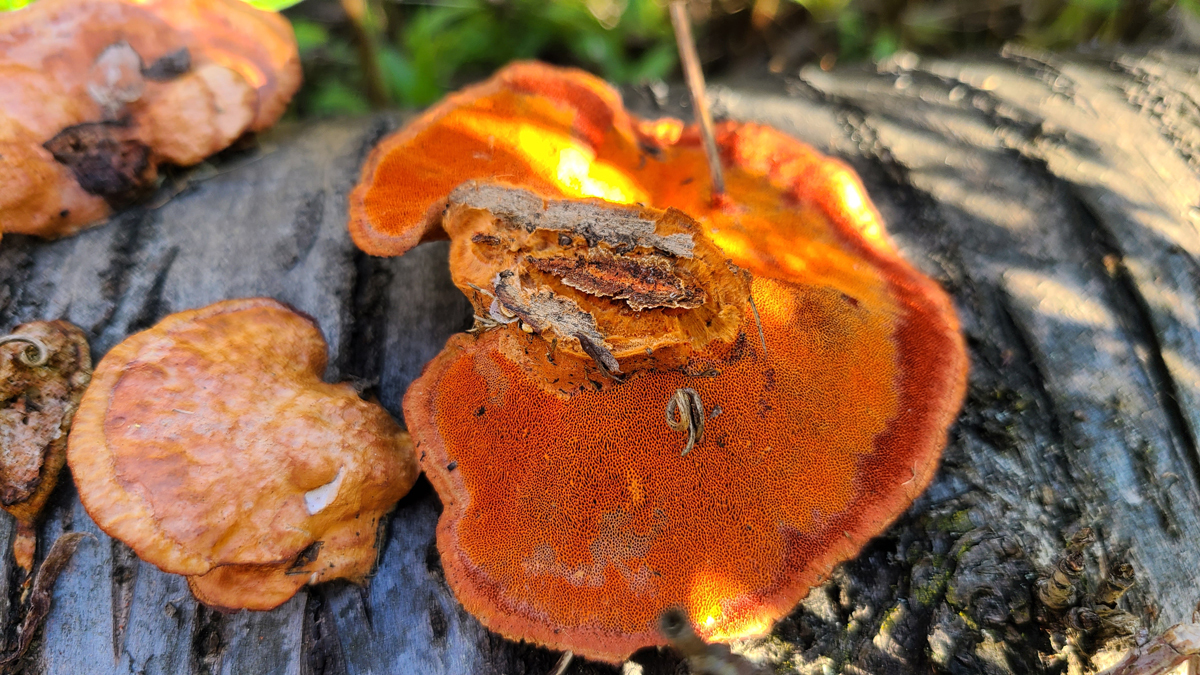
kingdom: Fungi
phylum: Basidiomycota
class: Agaricomycetes
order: Polyporales
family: Polyporaceae
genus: Trametes
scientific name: Trametes cinnabarina
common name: Northern cinnabar polypore
